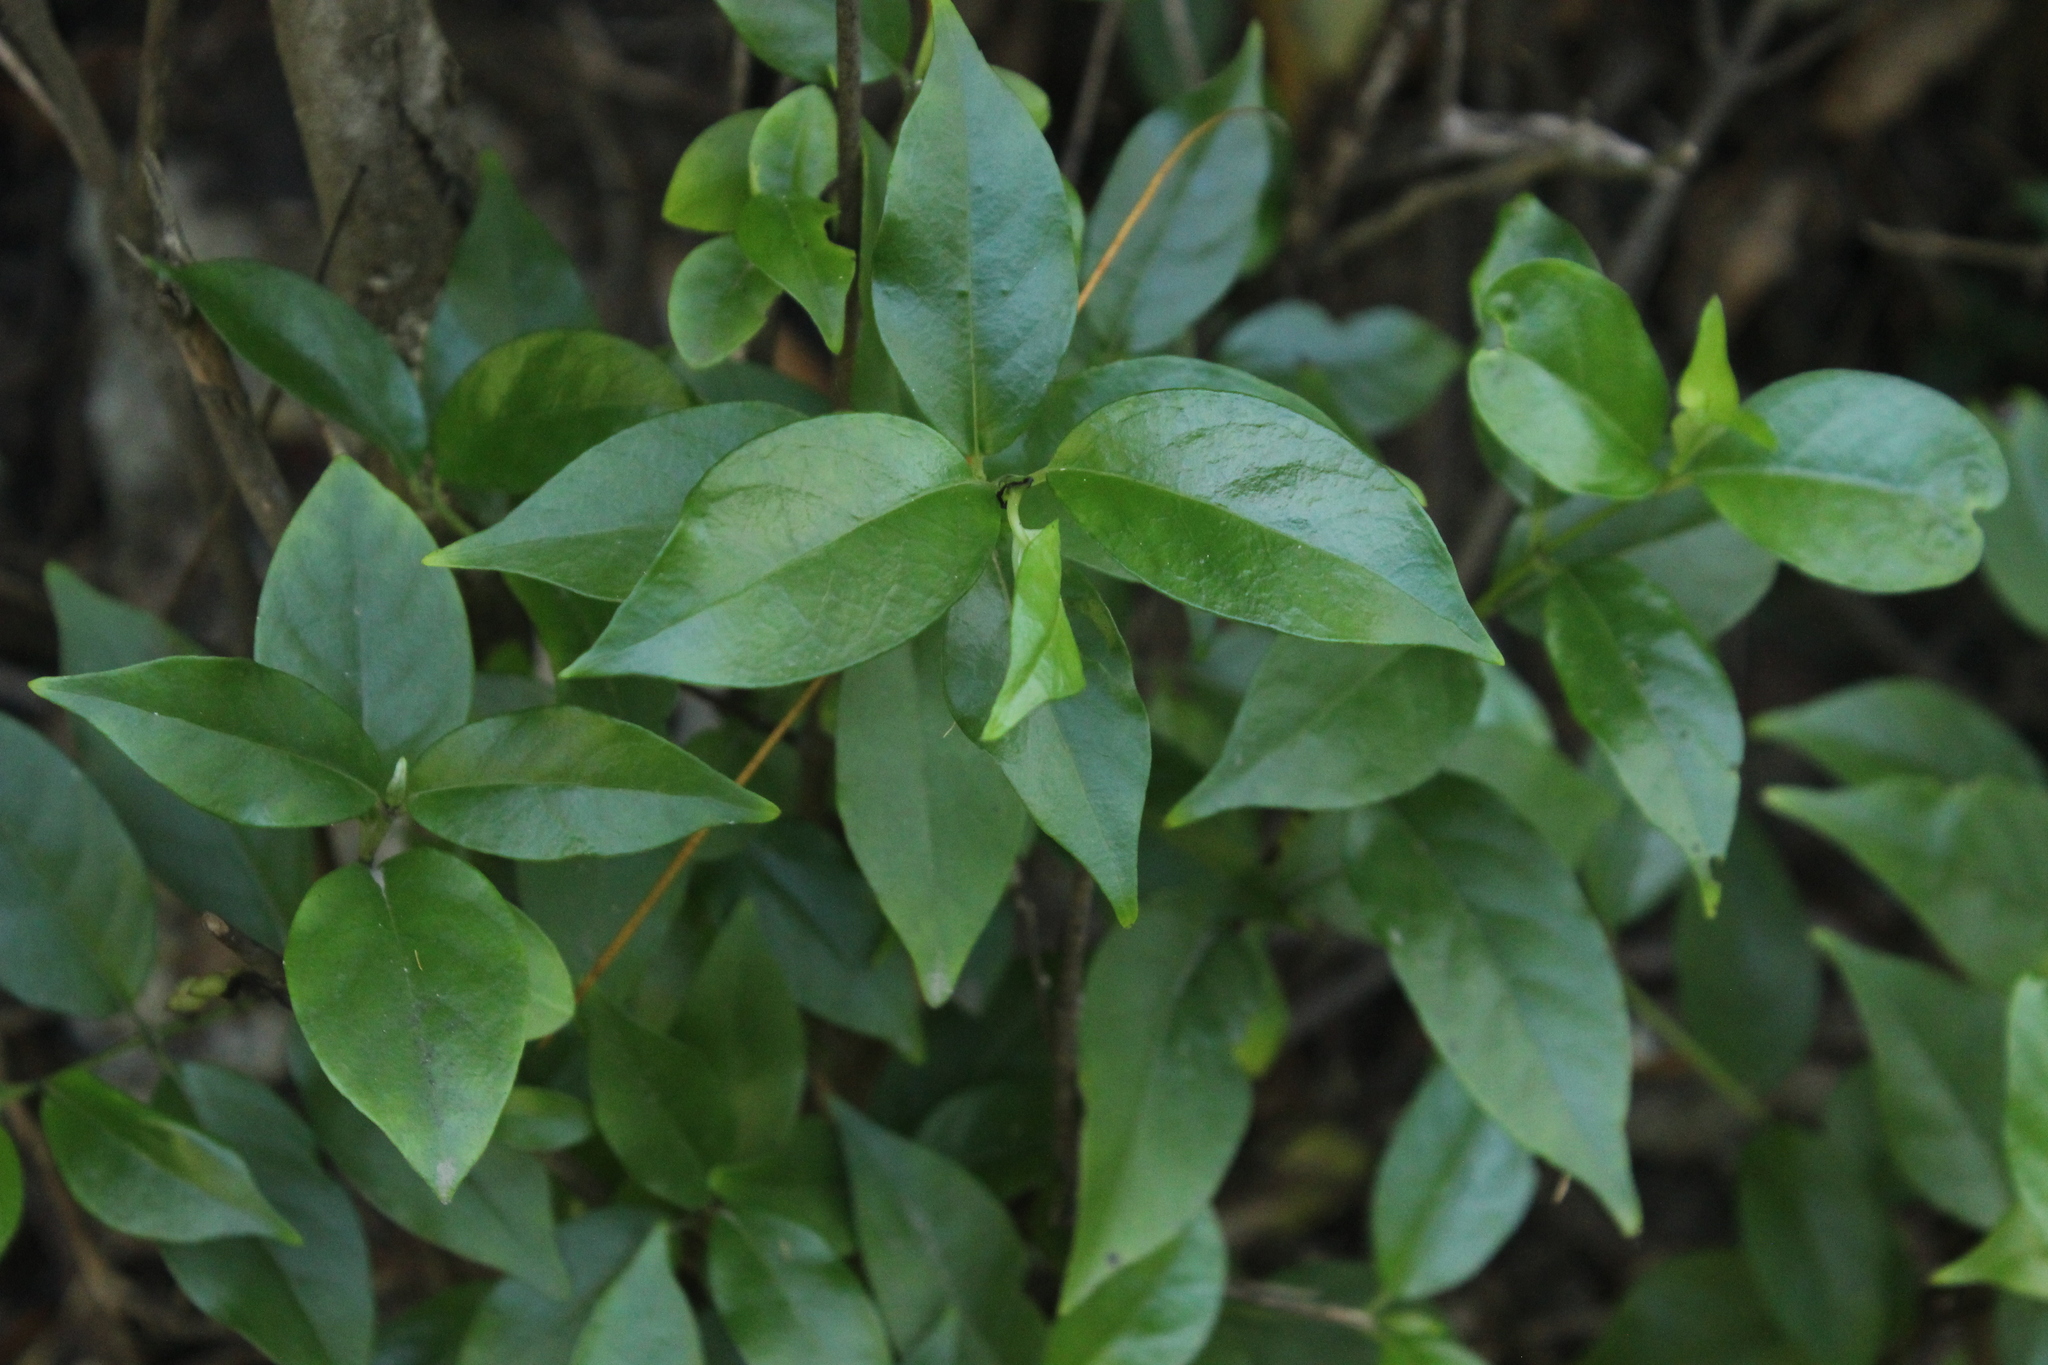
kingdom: Plantae
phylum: Tracheophyta
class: Magnoliopsida
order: Gentianales
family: Loganiaceae
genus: Geniostoma
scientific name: Geniostoma ligustrifolium
